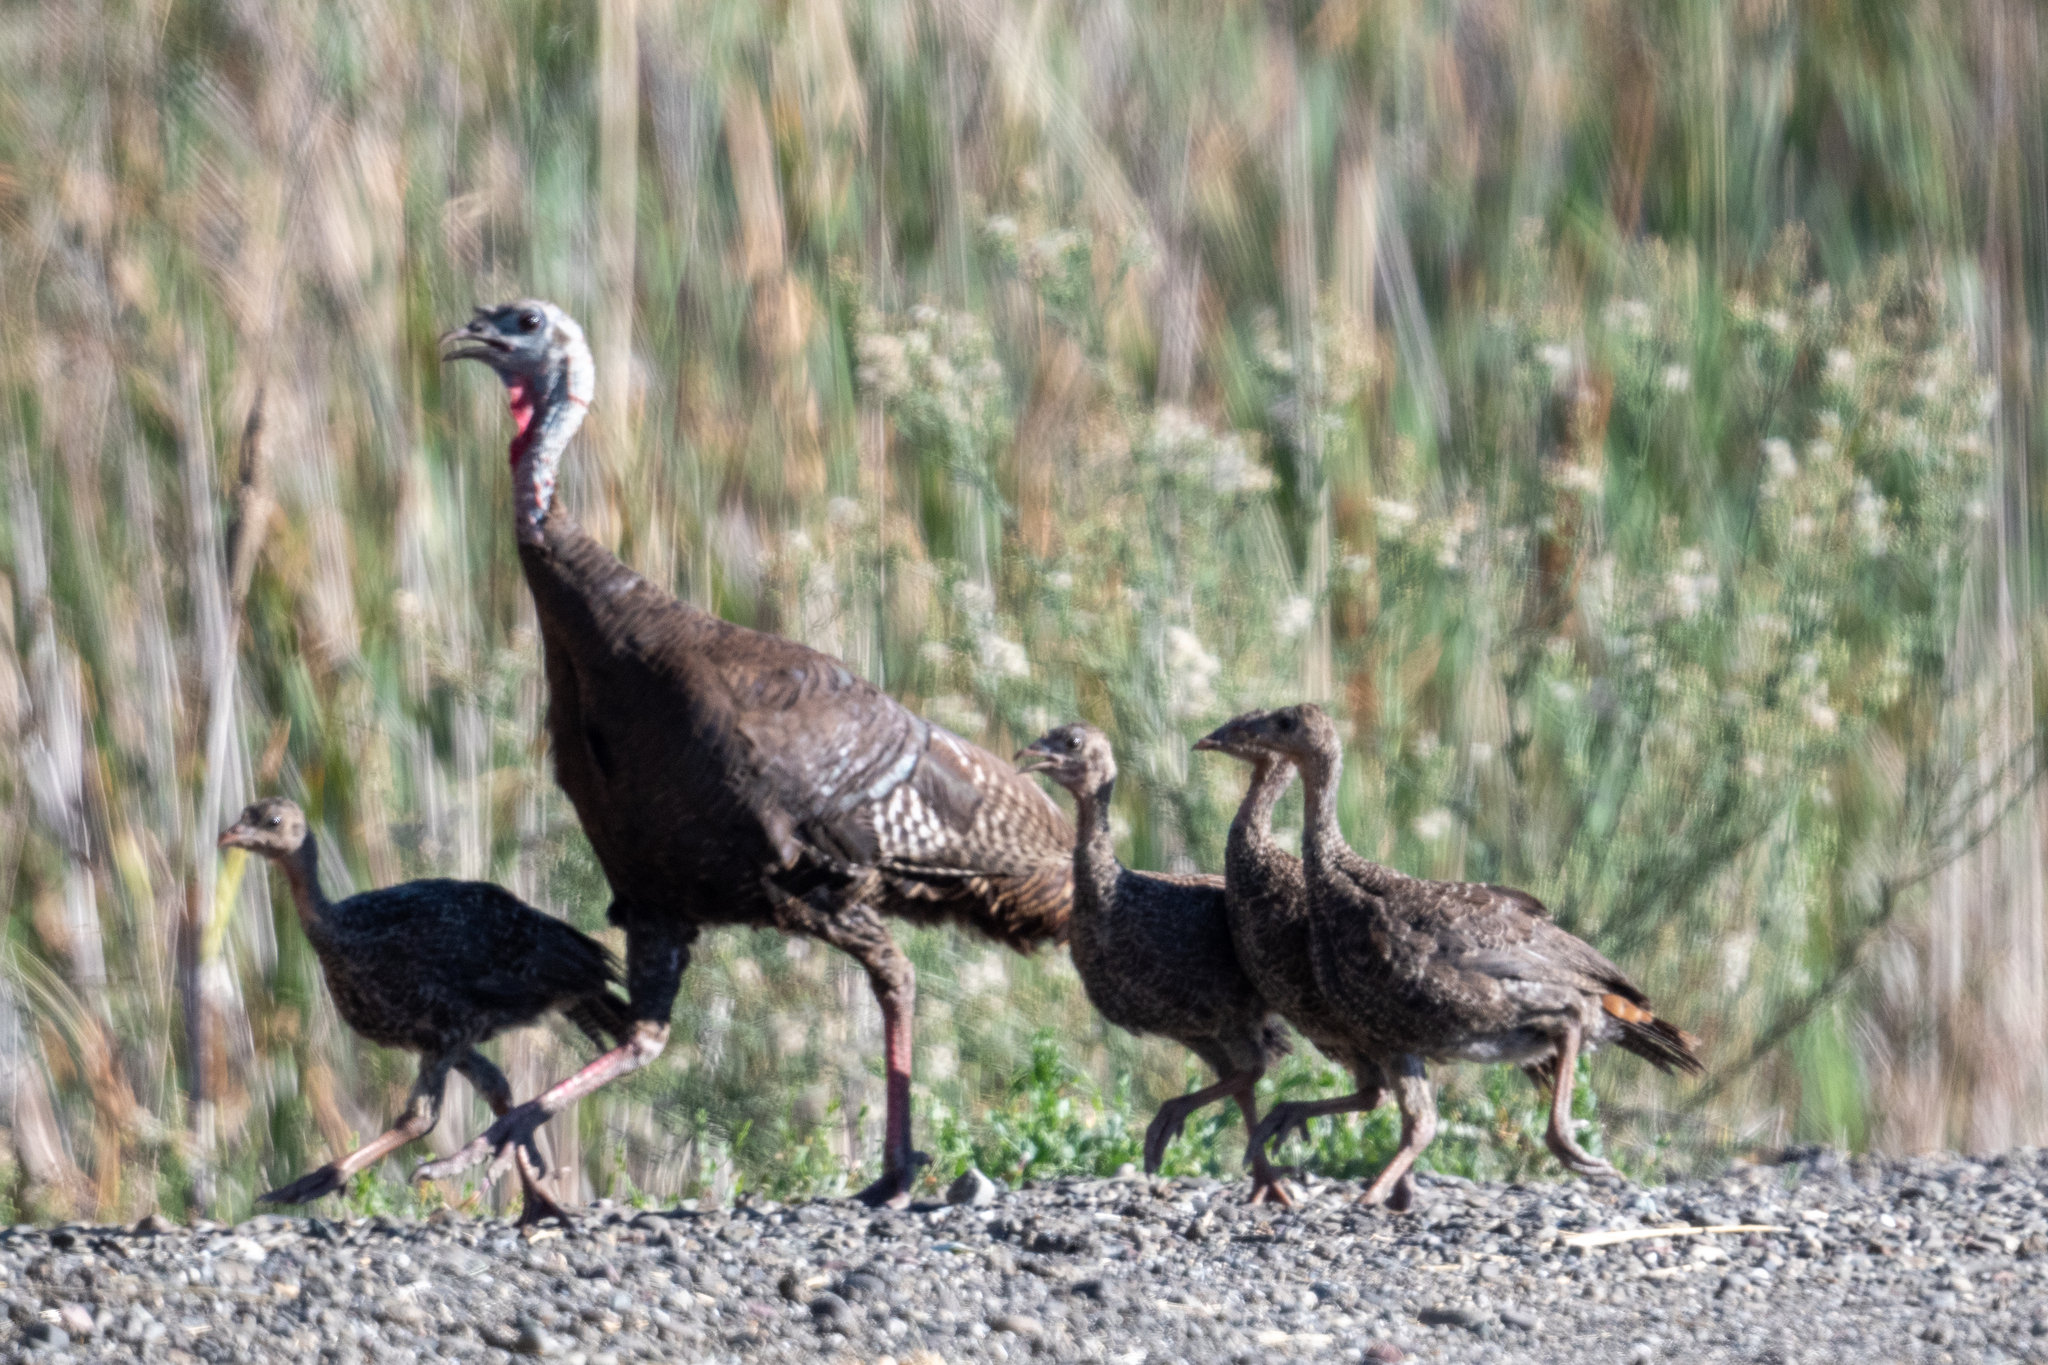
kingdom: Animalia
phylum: Chordata
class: Aves
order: Galliformes
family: Phasianidae
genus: Meleagris
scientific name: Meleagris gallopavo
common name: Wild turkey
